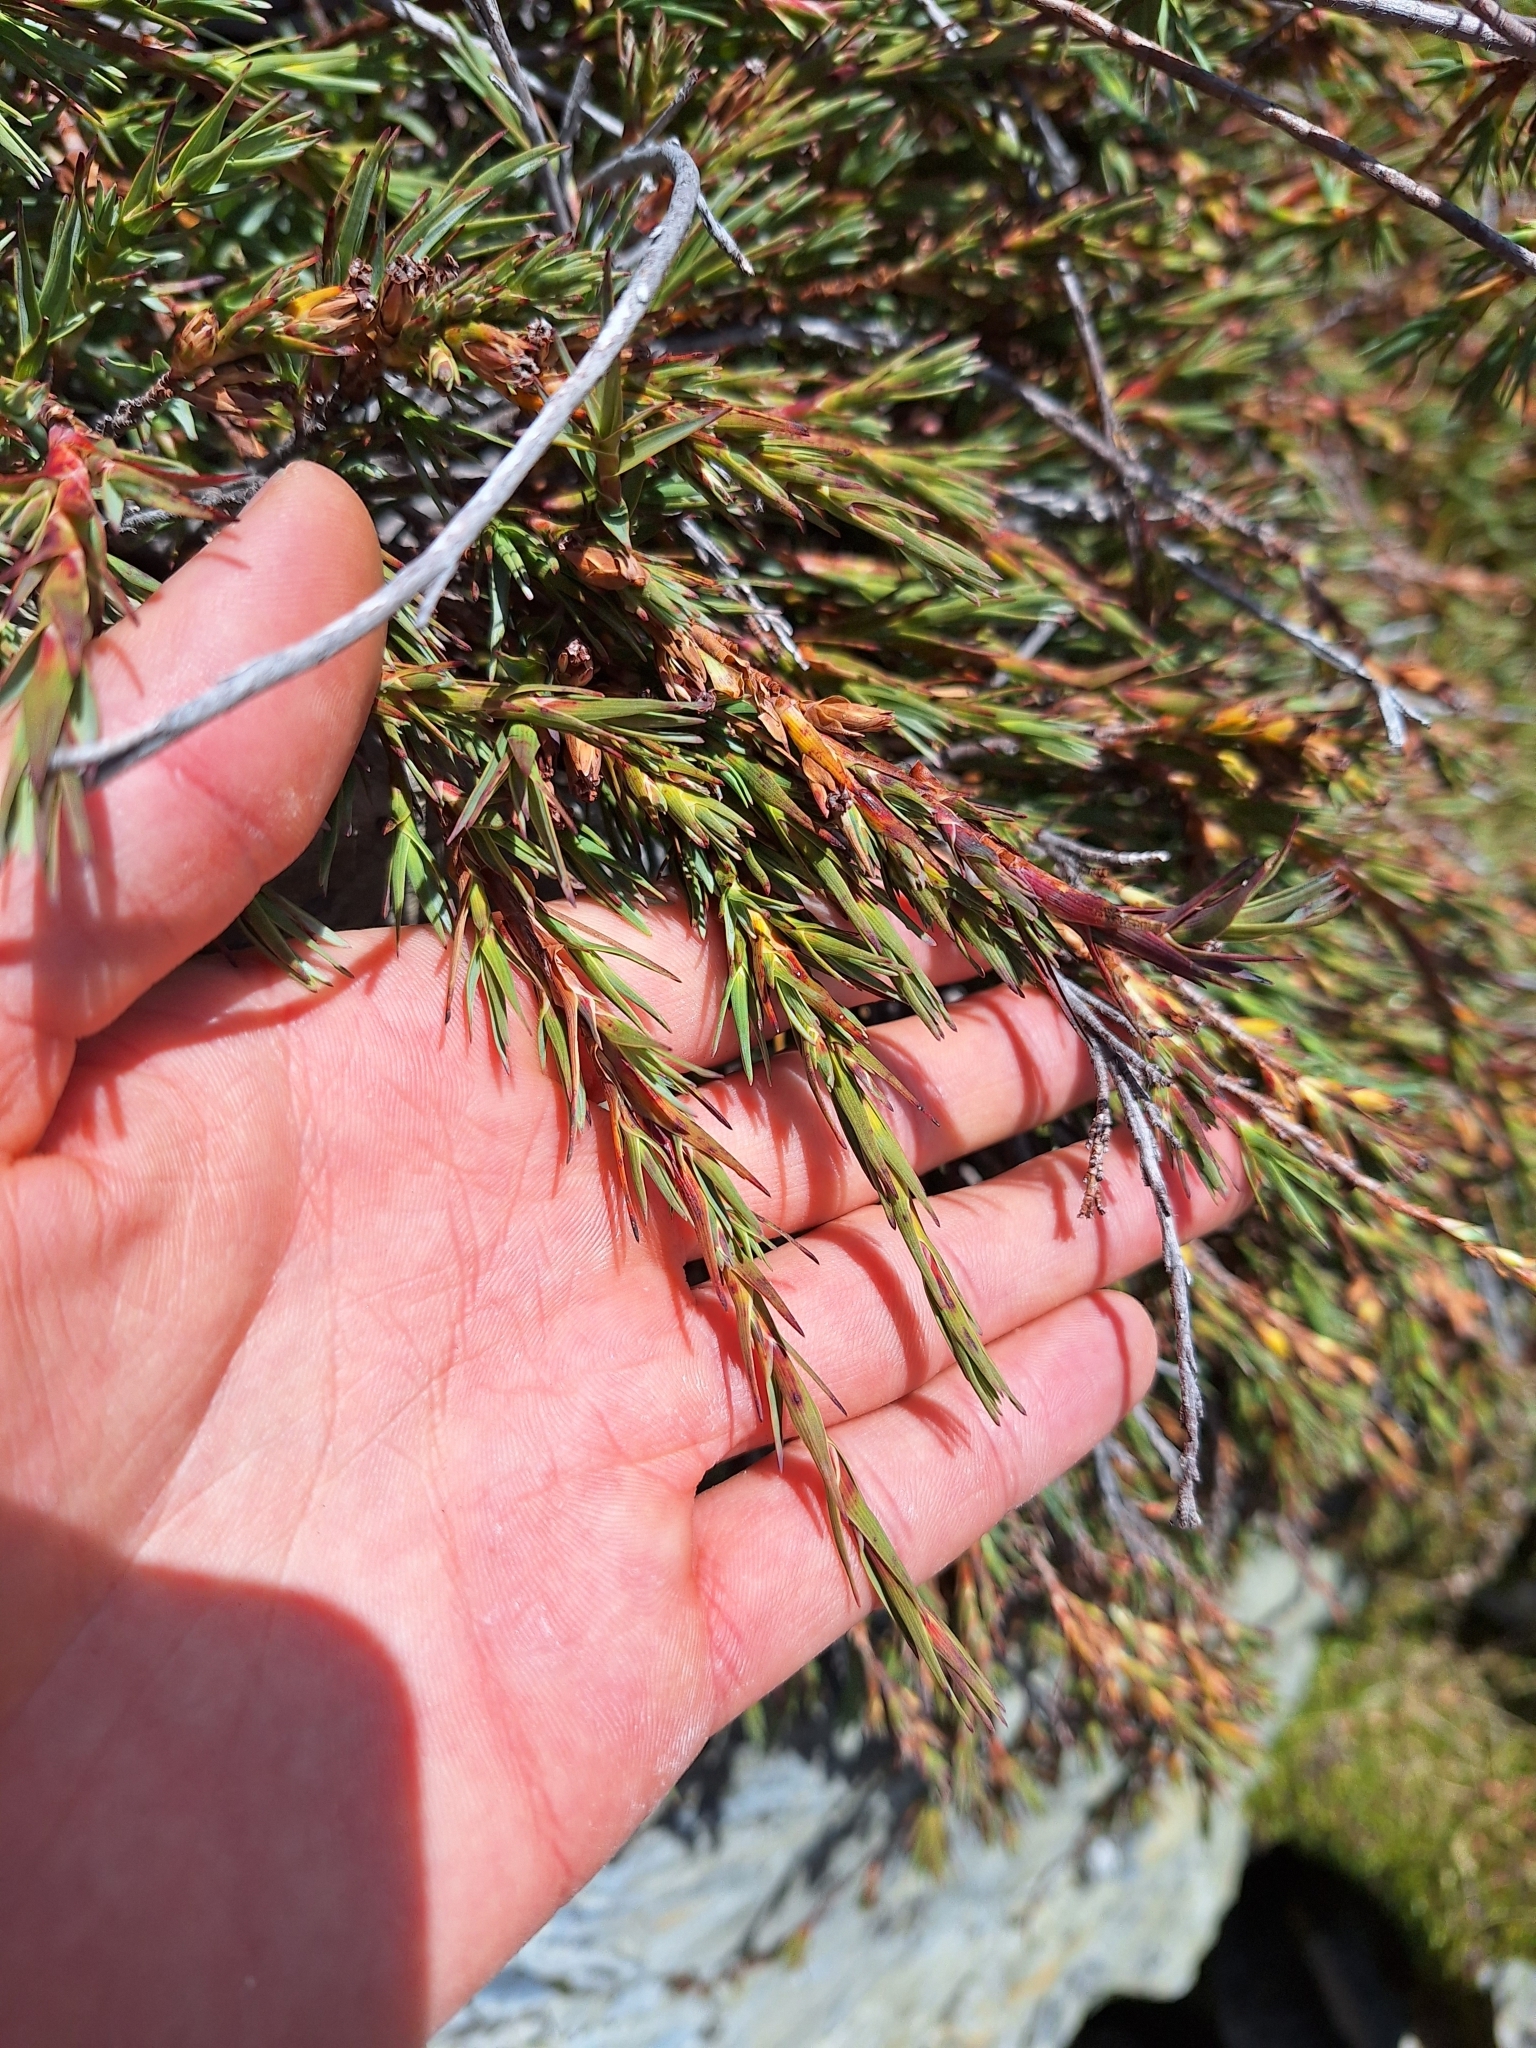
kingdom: Plantae
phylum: Tracheophyta
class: Magnoliopsida
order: Ericales
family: Ericaceae
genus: Dracophyllum
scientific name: Dracophyllum kirkii
